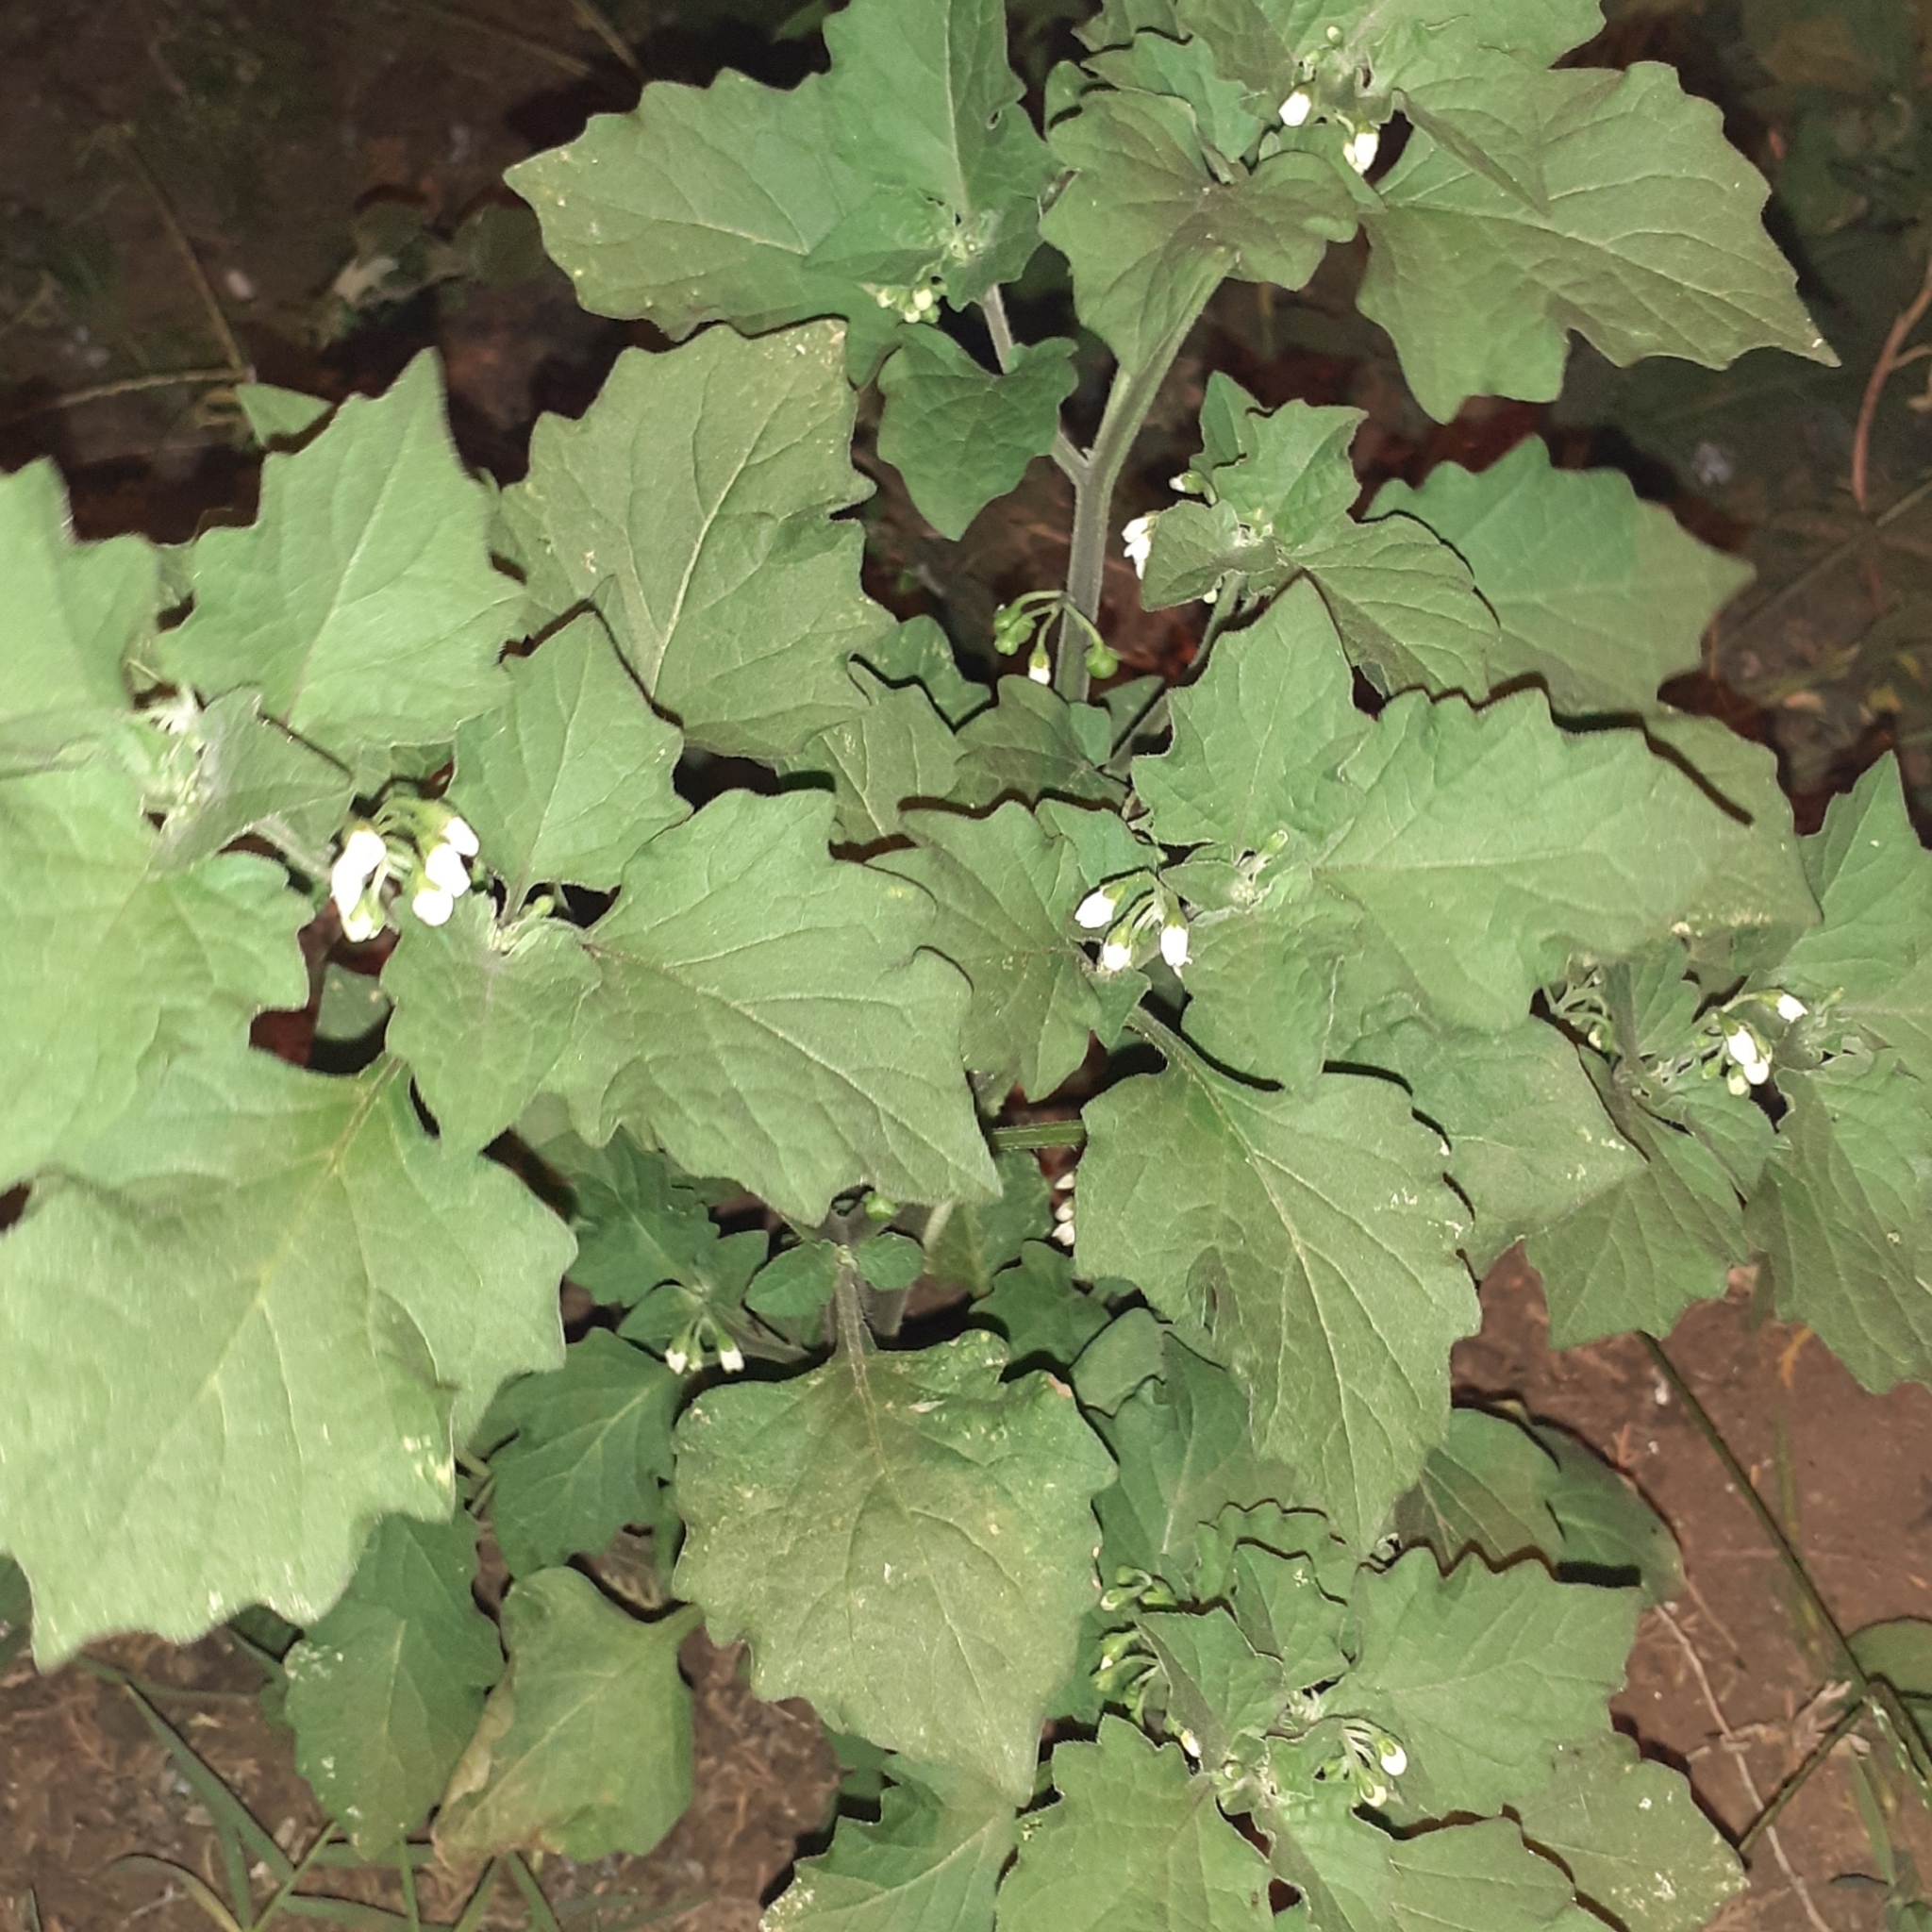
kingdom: Plantae
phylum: Tracheophyta
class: Magnoliopsida
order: Solanales
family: Solanaceae
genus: Solanum
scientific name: Solanum nigrum
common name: Black nightshade
